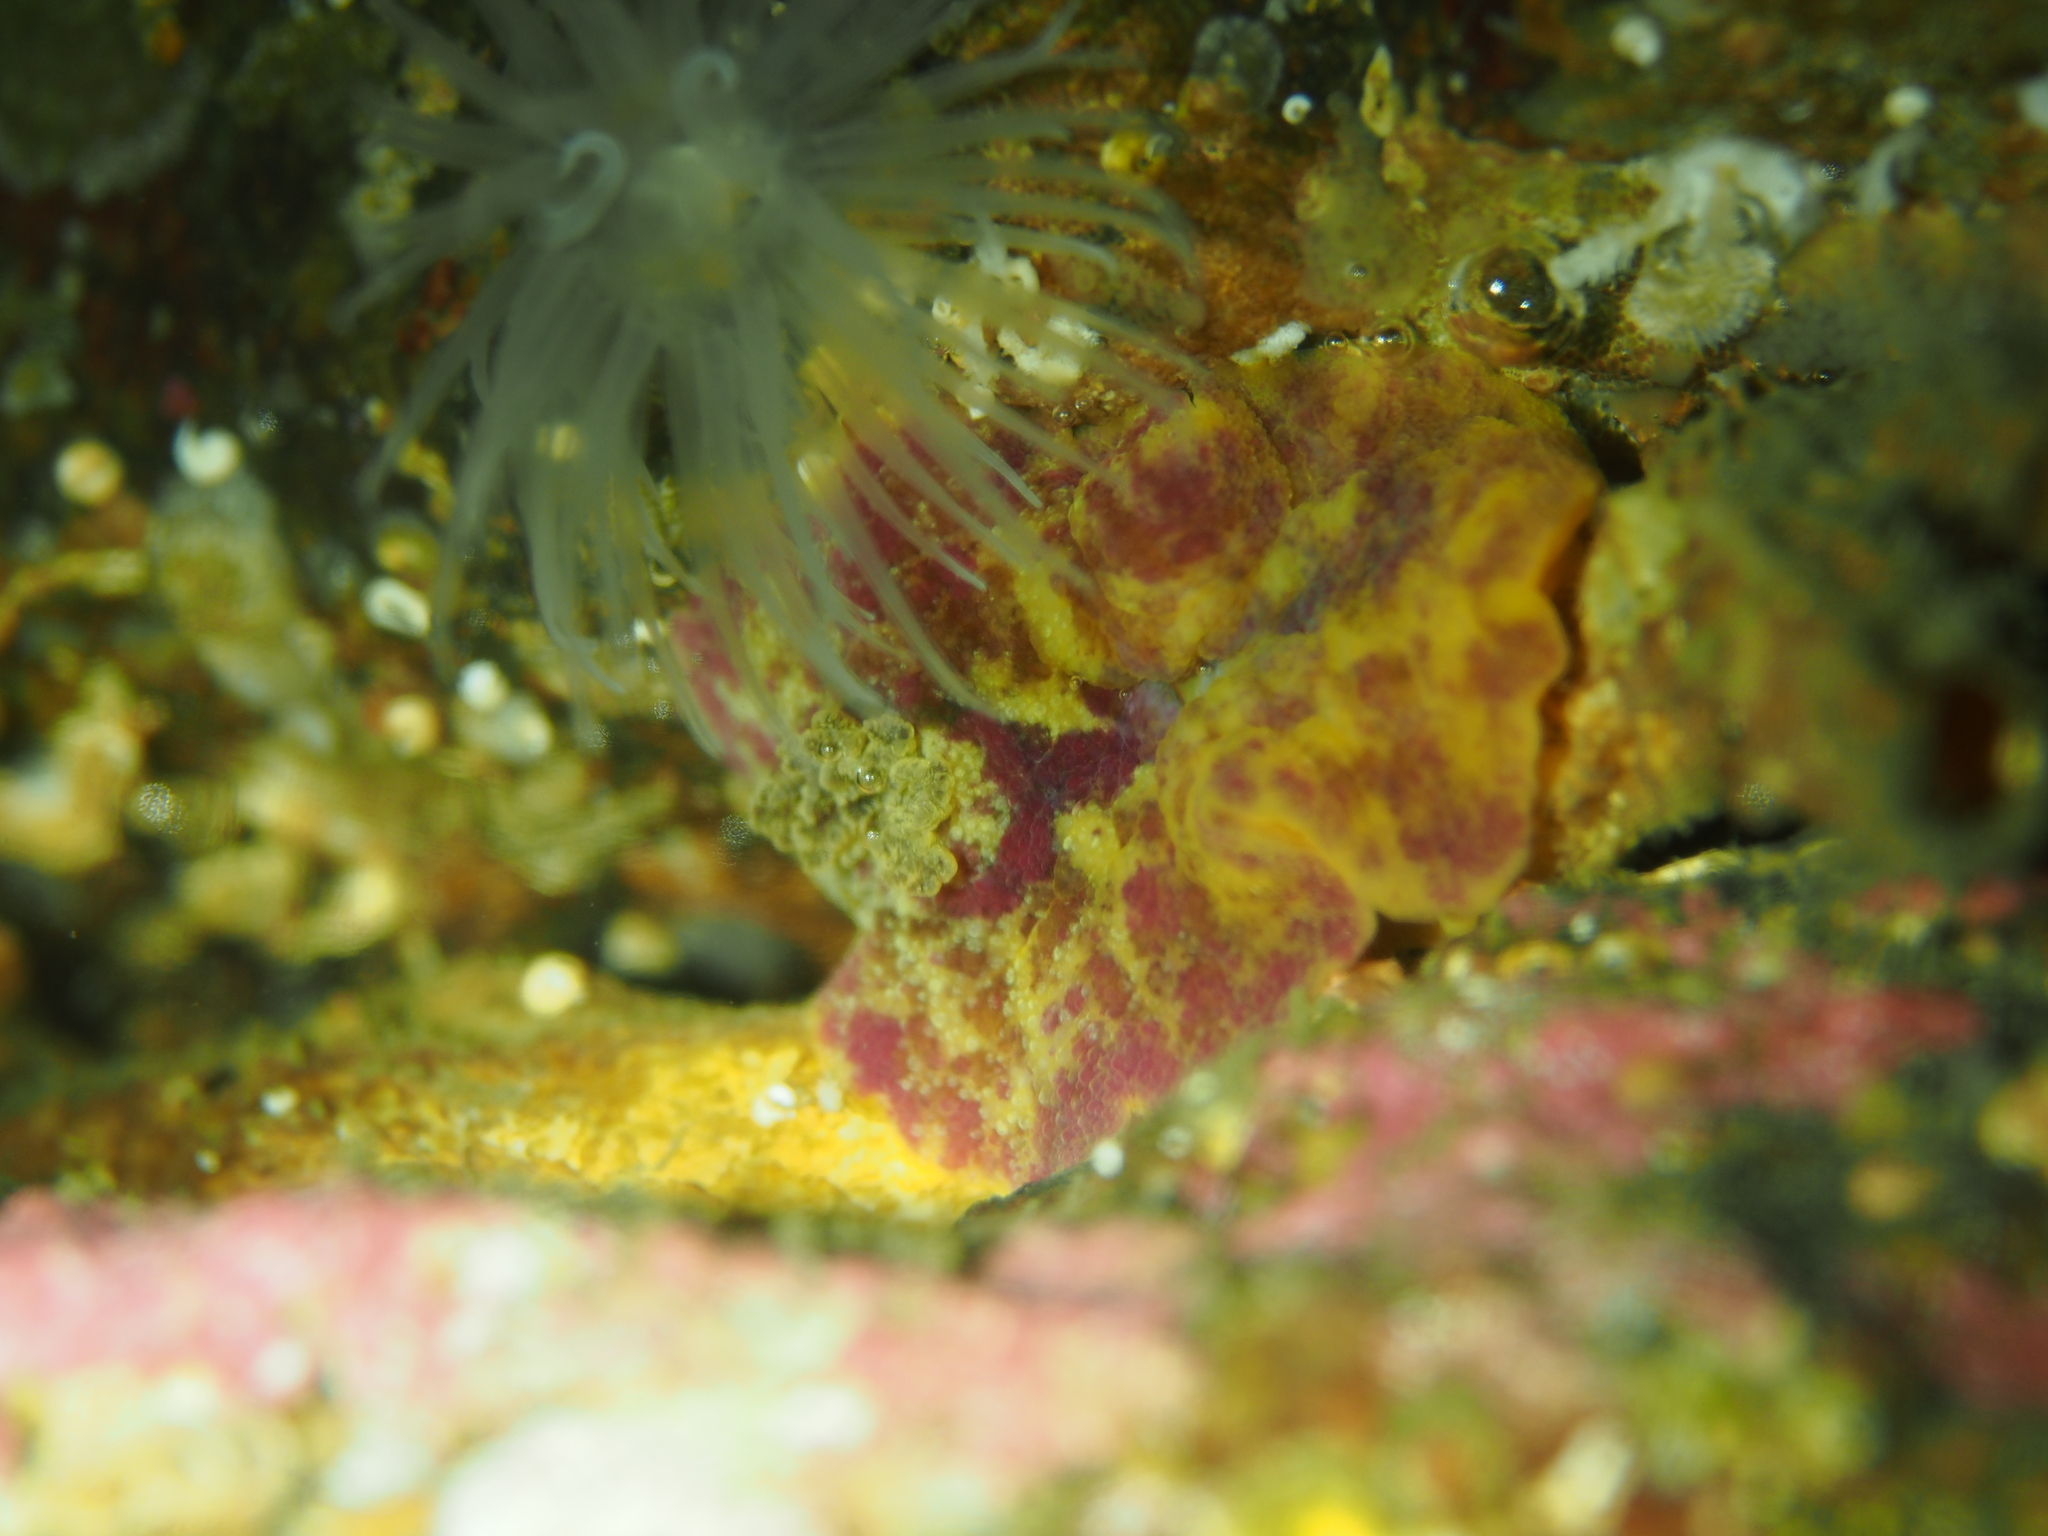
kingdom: Animalia
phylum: Mollusca
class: Gastropoda
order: Nudibranchia
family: Dorididae
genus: Doris
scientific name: Doris pseudoargus
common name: Sea lemon
